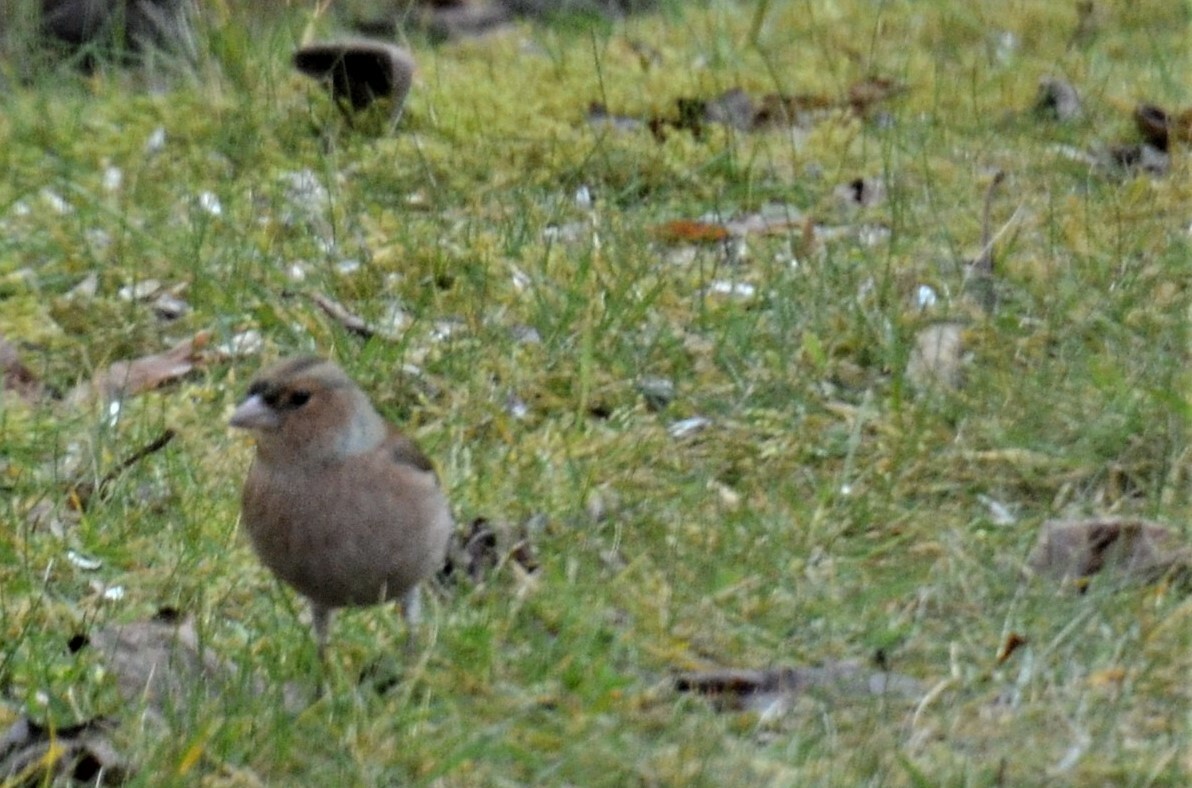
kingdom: Animalia
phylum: Chordata
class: Aves
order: Passeriformes
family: Fringillidae
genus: Fringilla
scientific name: Fringilla coelebs
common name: Common chaffinch
